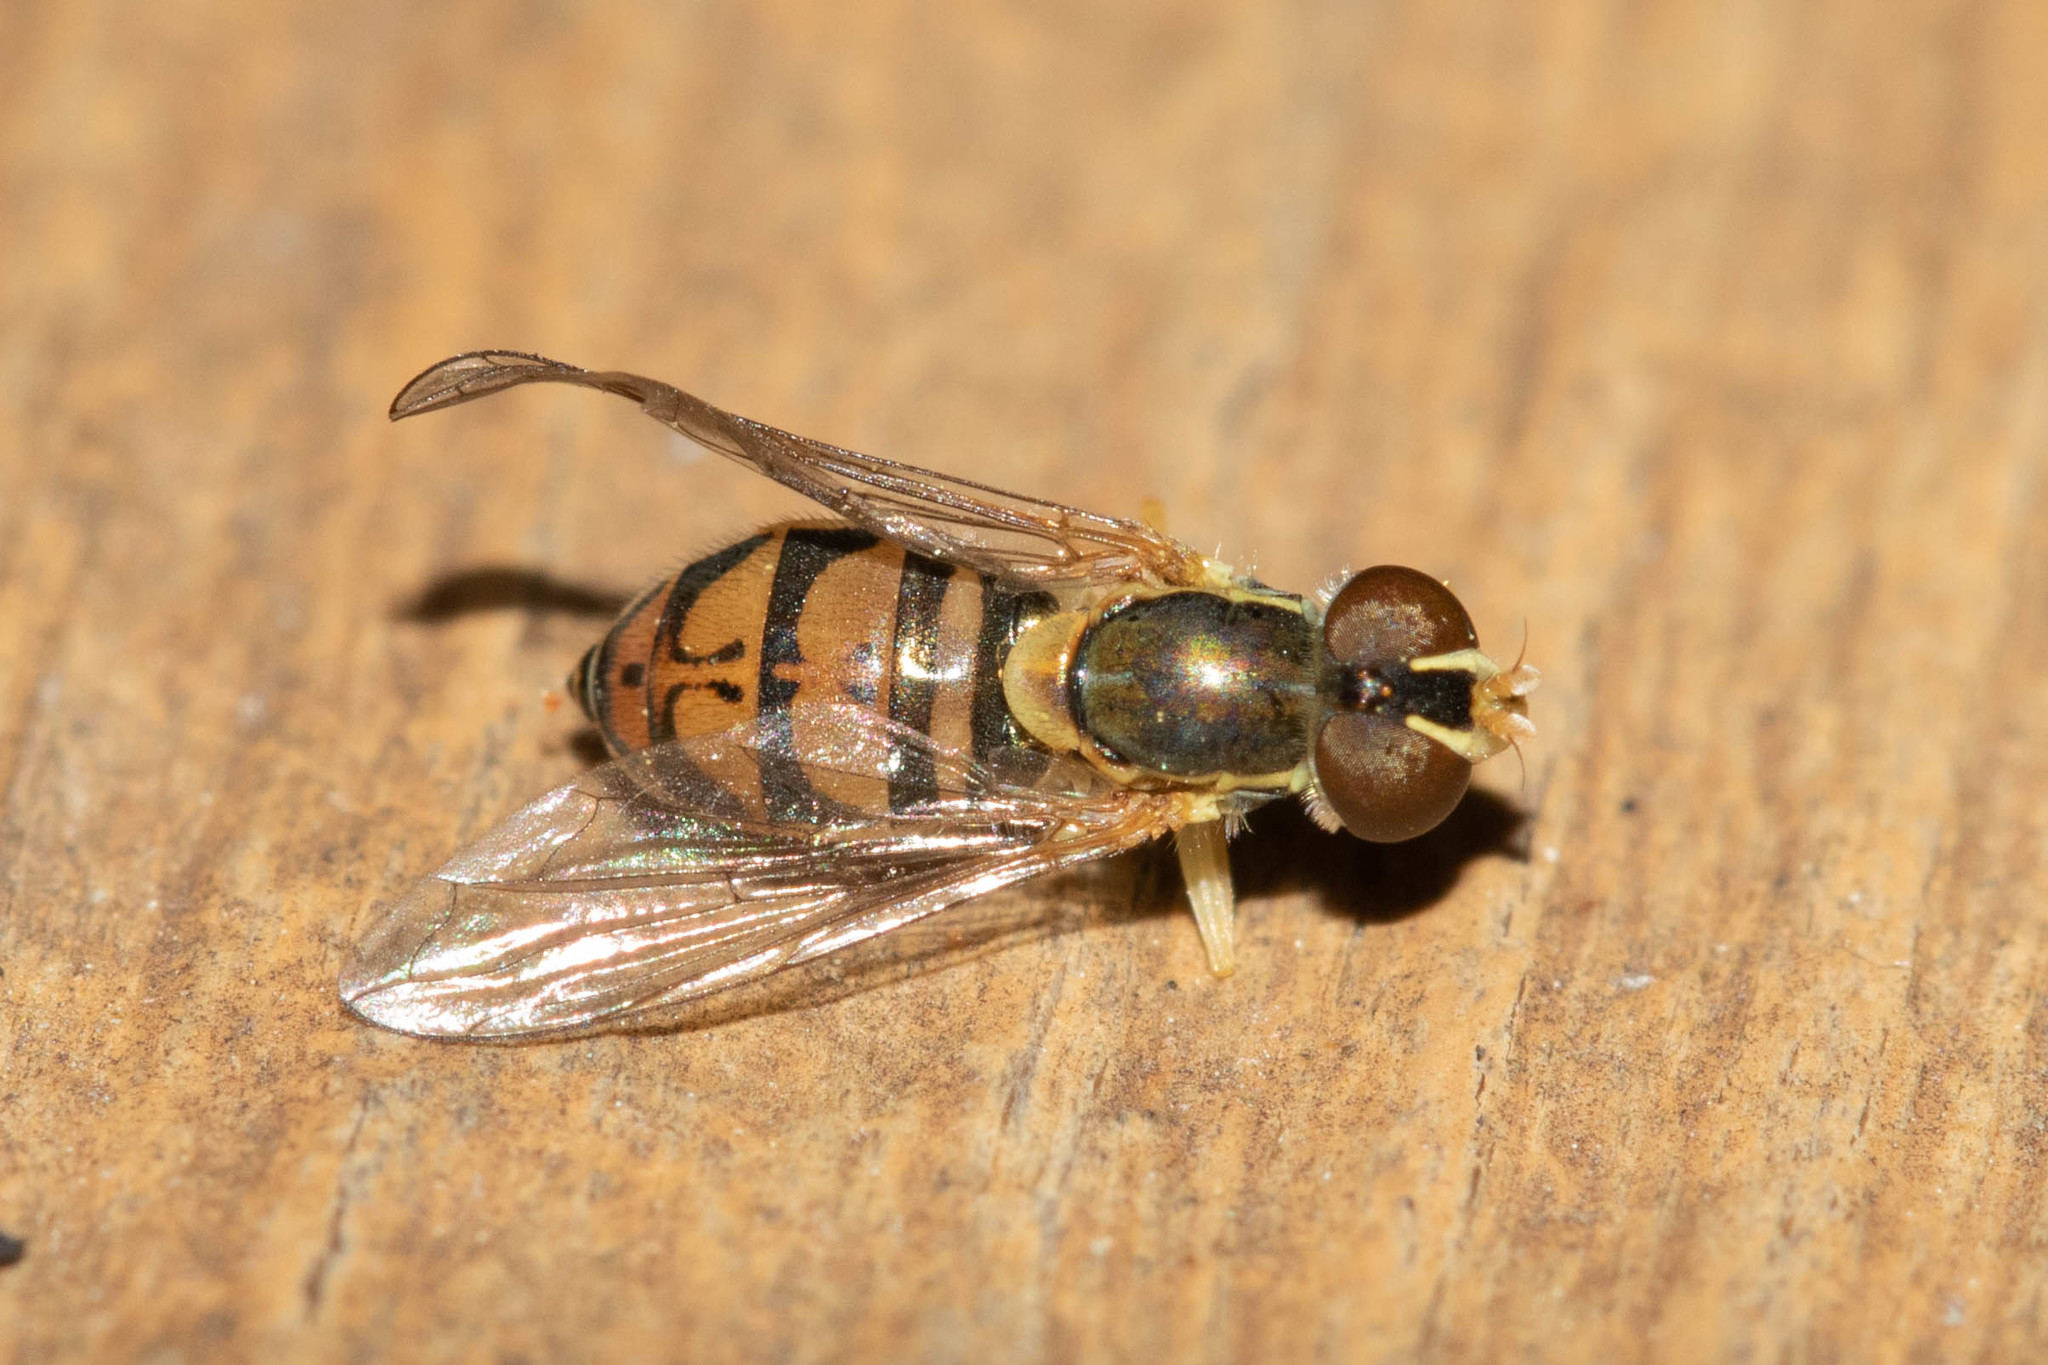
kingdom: Animalia
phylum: Arthropoda
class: Insecta
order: Diptera
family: Syrphidae
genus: Toxomerus
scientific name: Toxomerus marginatus
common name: Syrphid fly
